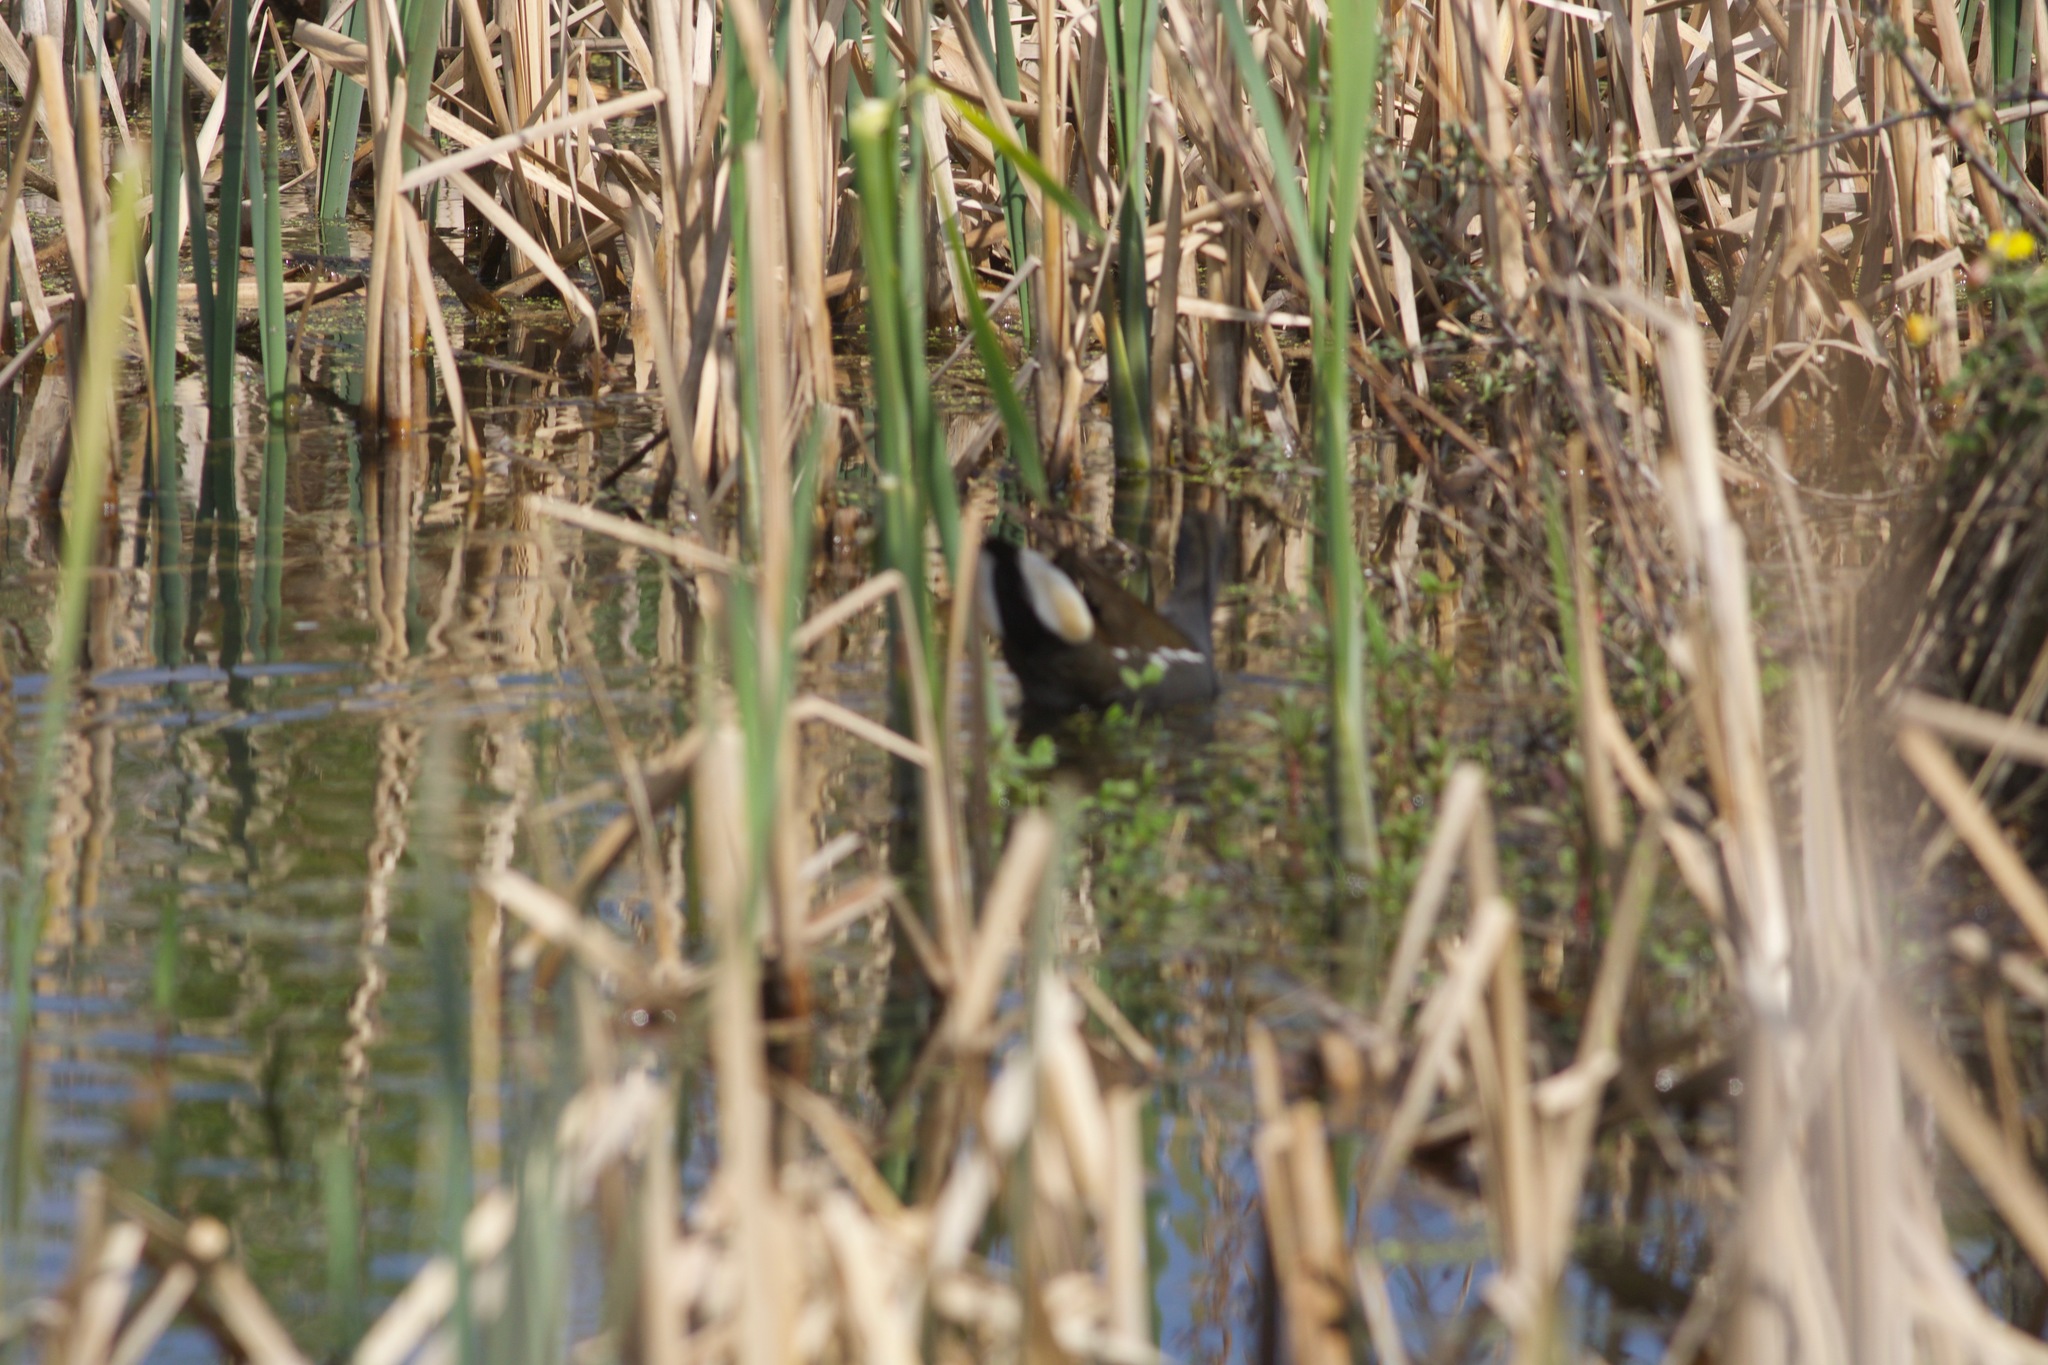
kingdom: Animalia
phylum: Chordata
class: Aves
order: Gruiformes
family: Rallidae
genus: Gallinula
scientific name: Gallinula chloropus
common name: Common moorhen
